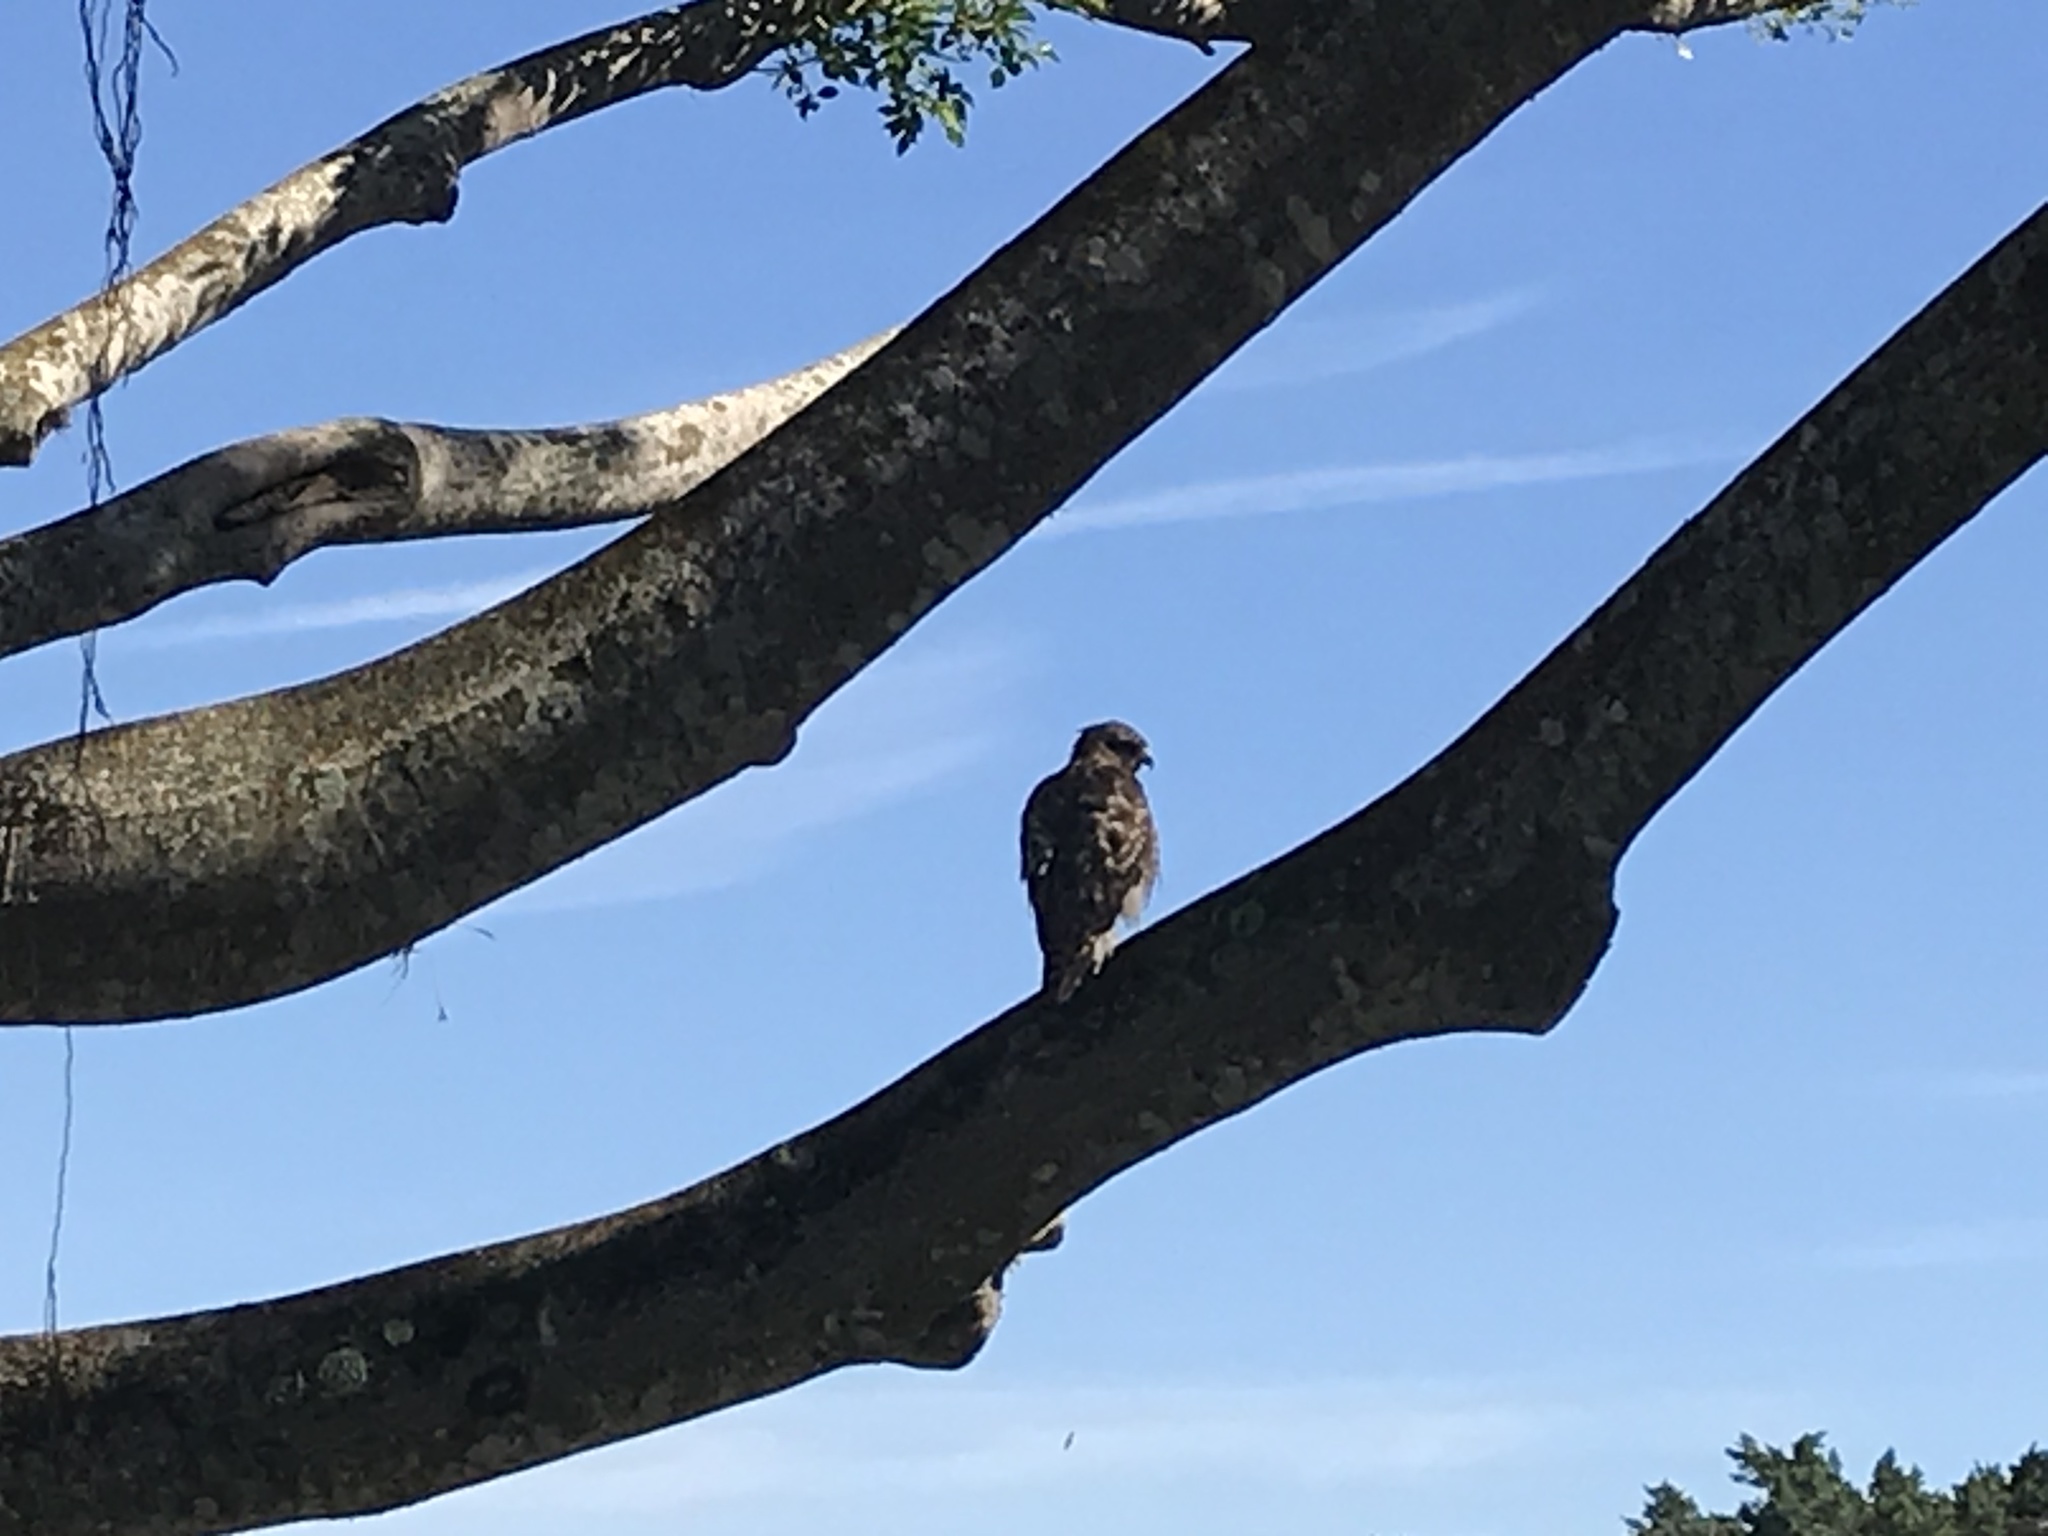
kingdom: Animalia
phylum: Chordata
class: Aves
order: Accipitriformes
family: Accipitridae
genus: Buteo
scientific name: Buteo lineatus
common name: Red-shouldered hawk
